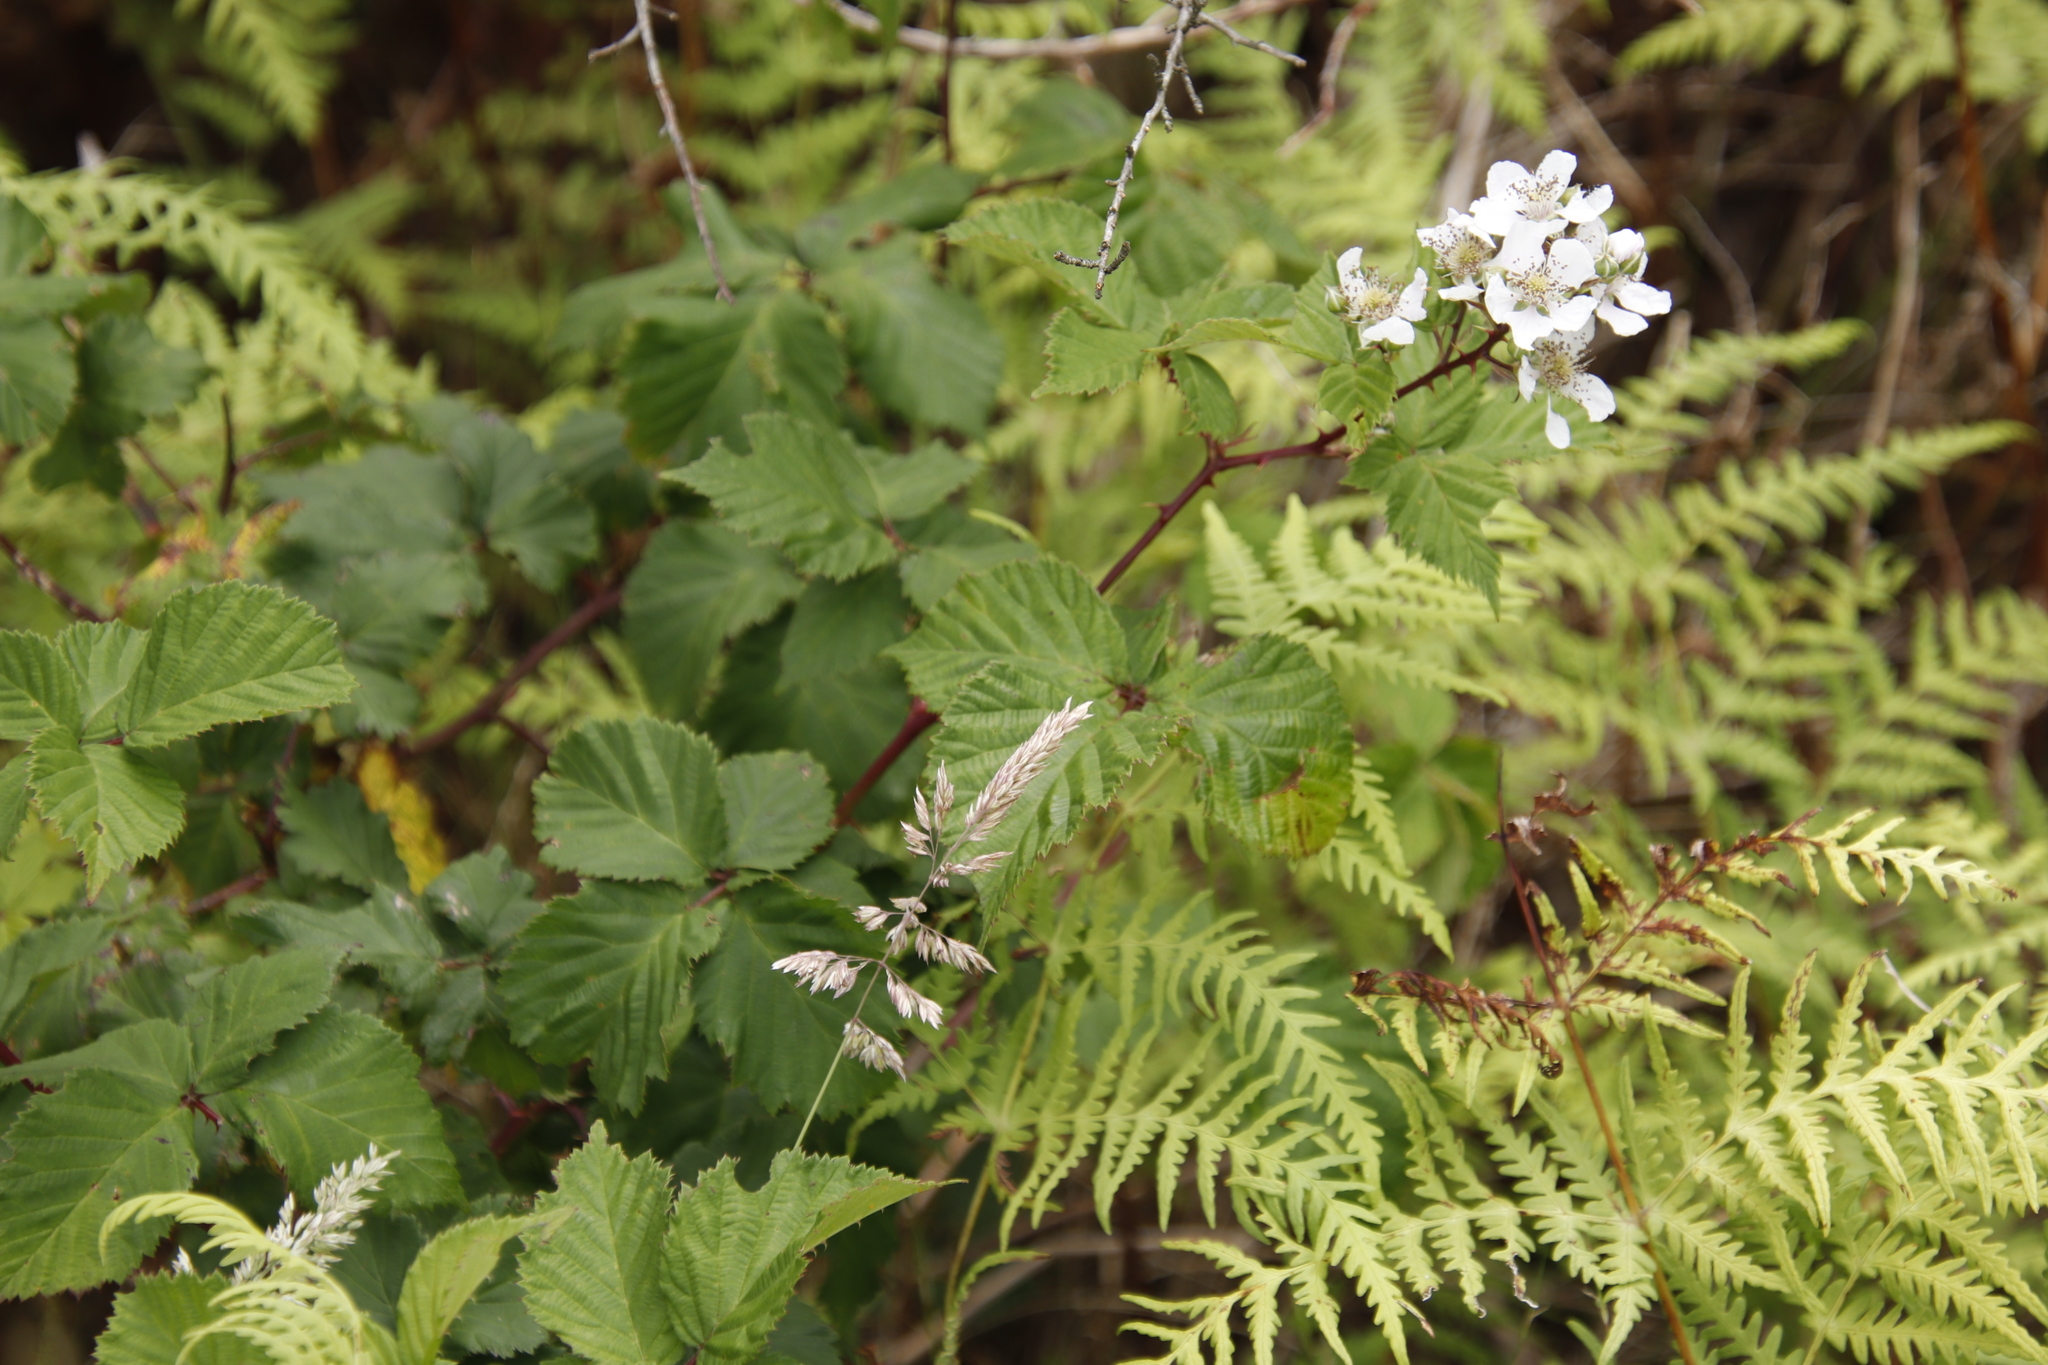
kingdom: Plantae
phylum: Tracheophyta
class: Magnoliopsida
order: Rosales
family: Rosaceae
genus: Rubus
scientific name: Rubus affinis
